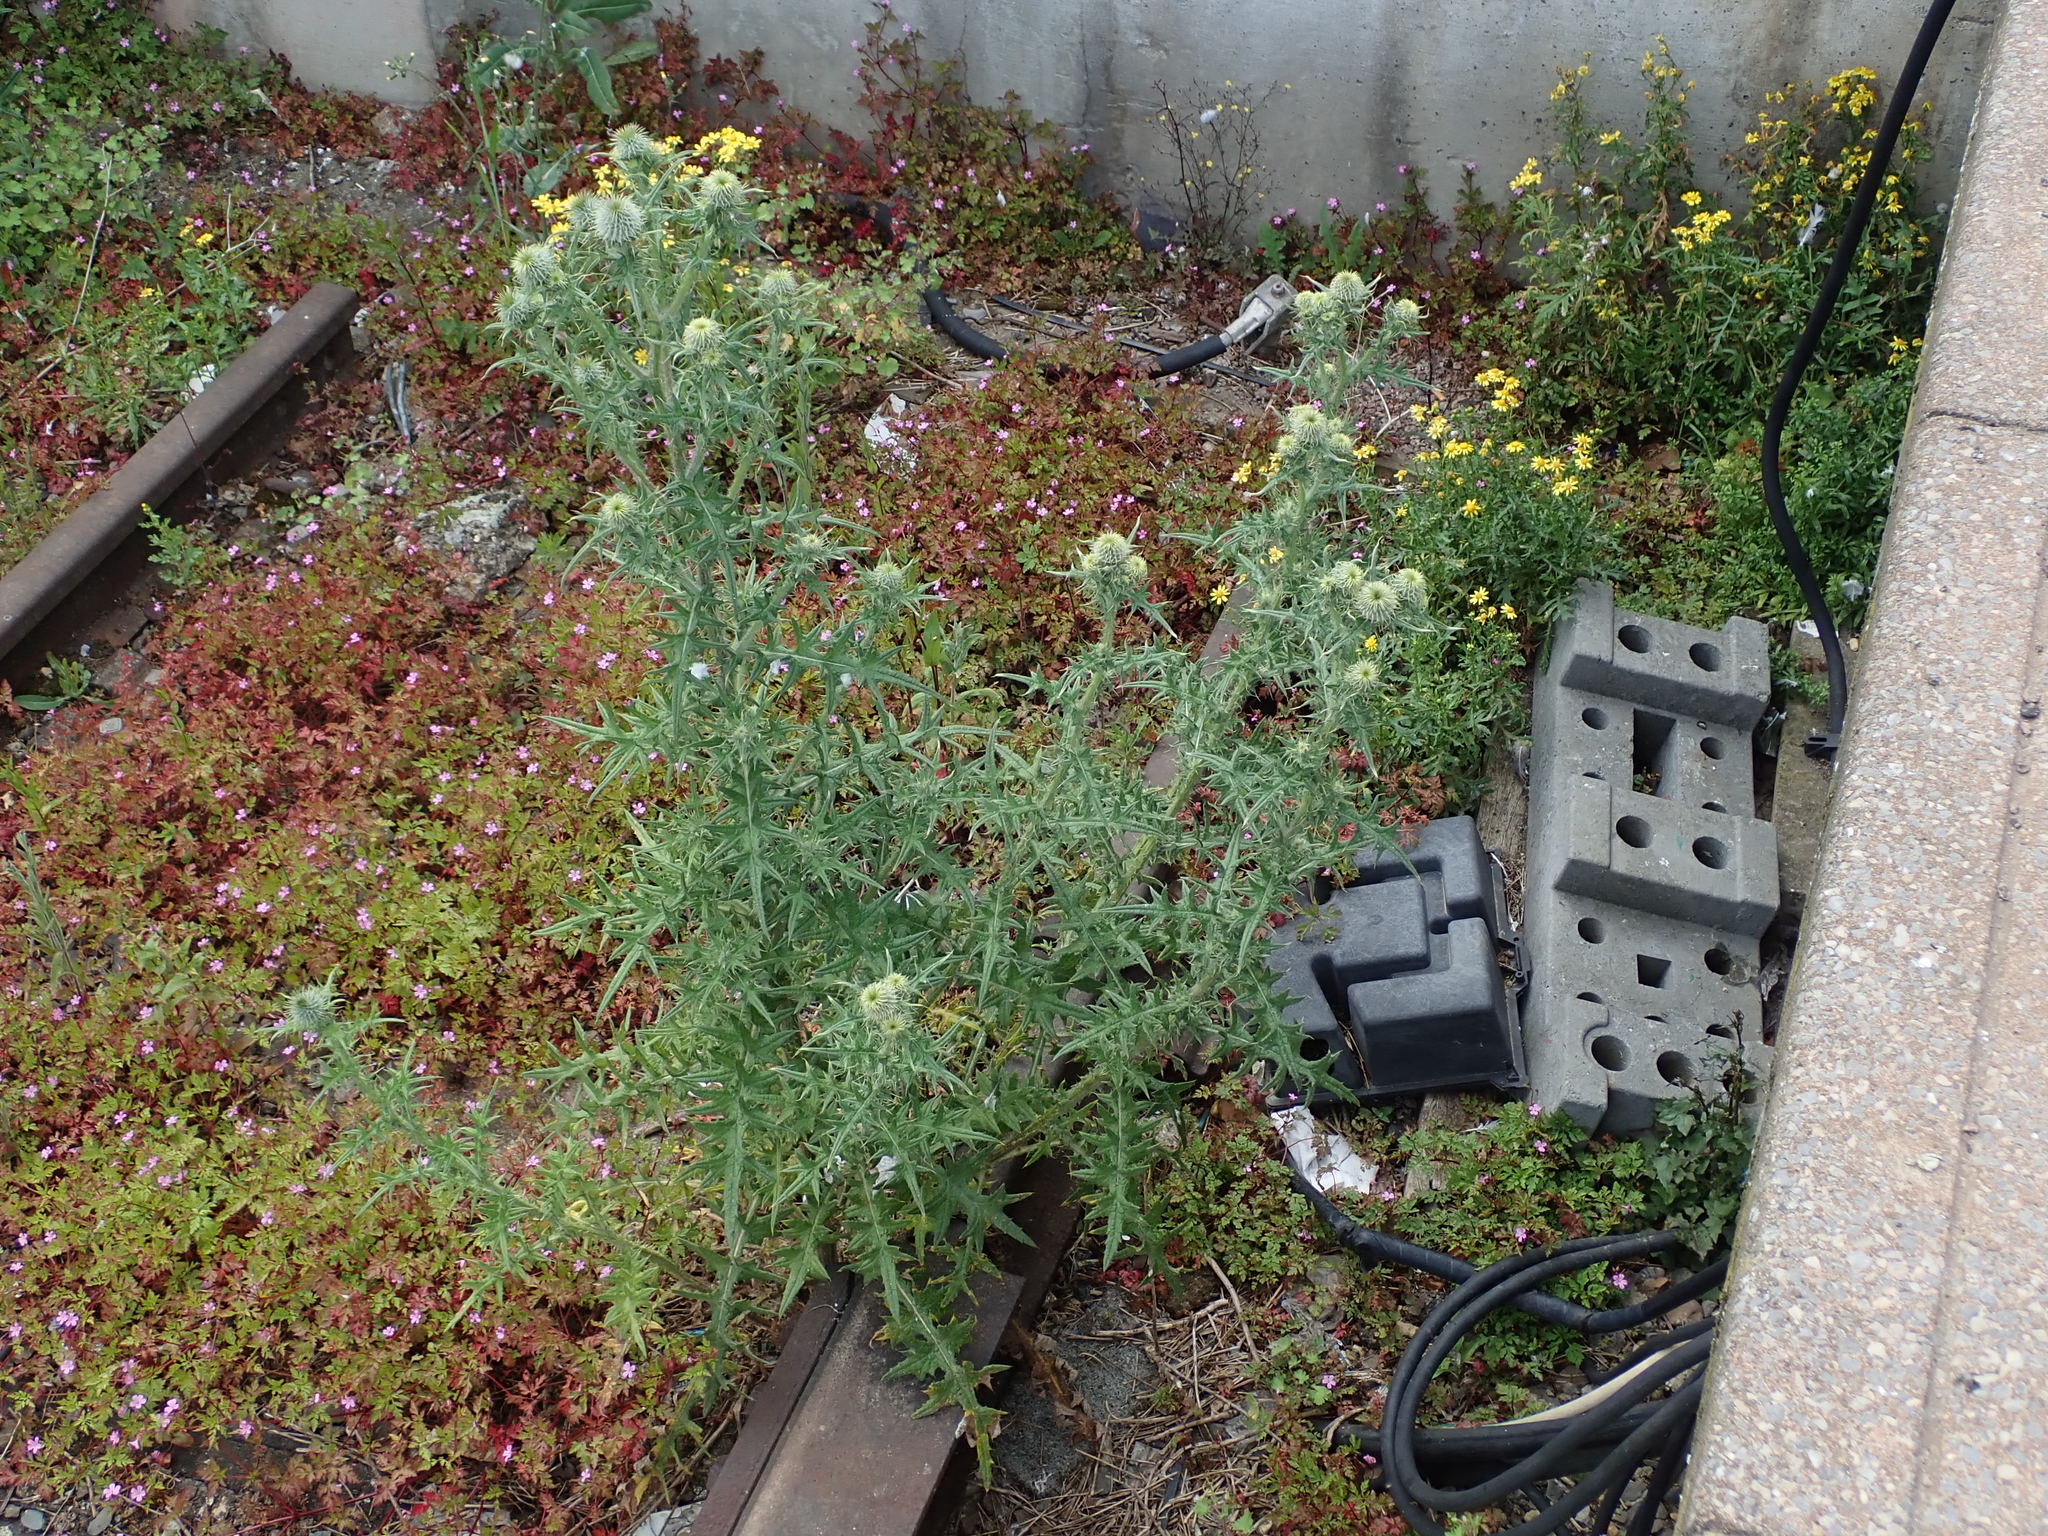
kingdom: Plantae
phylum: Tracheophyta
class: Magnoliopsida
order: Asterales
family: Asteraceae
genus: Cirsium
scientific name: Cirsium vulgare
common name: Bull thistle
